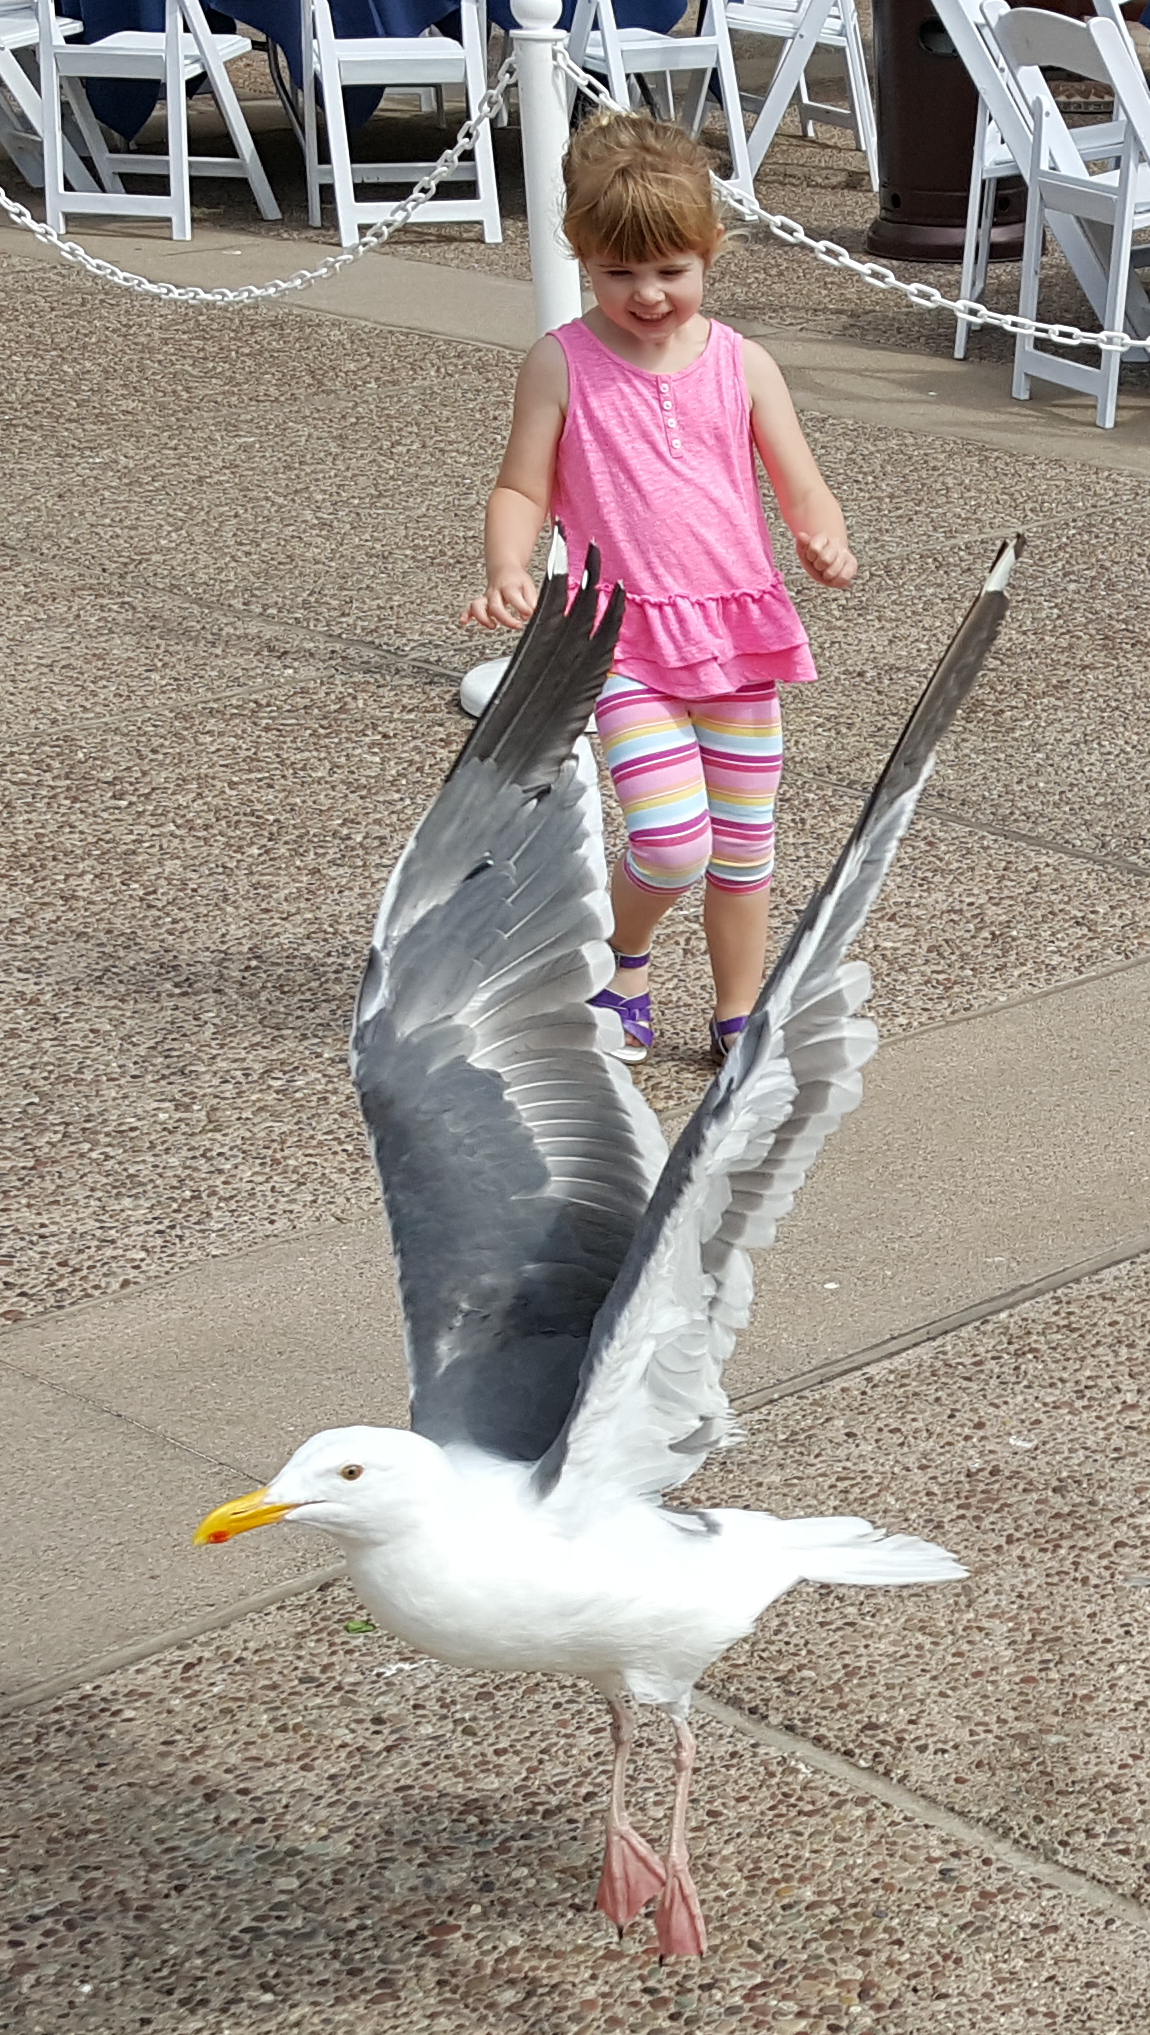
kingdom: Animalia
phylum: Chordata
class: Aves
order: Charadriiformes
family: Laridae
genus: Larus
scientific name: Larus occidentalis
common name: Western gull
